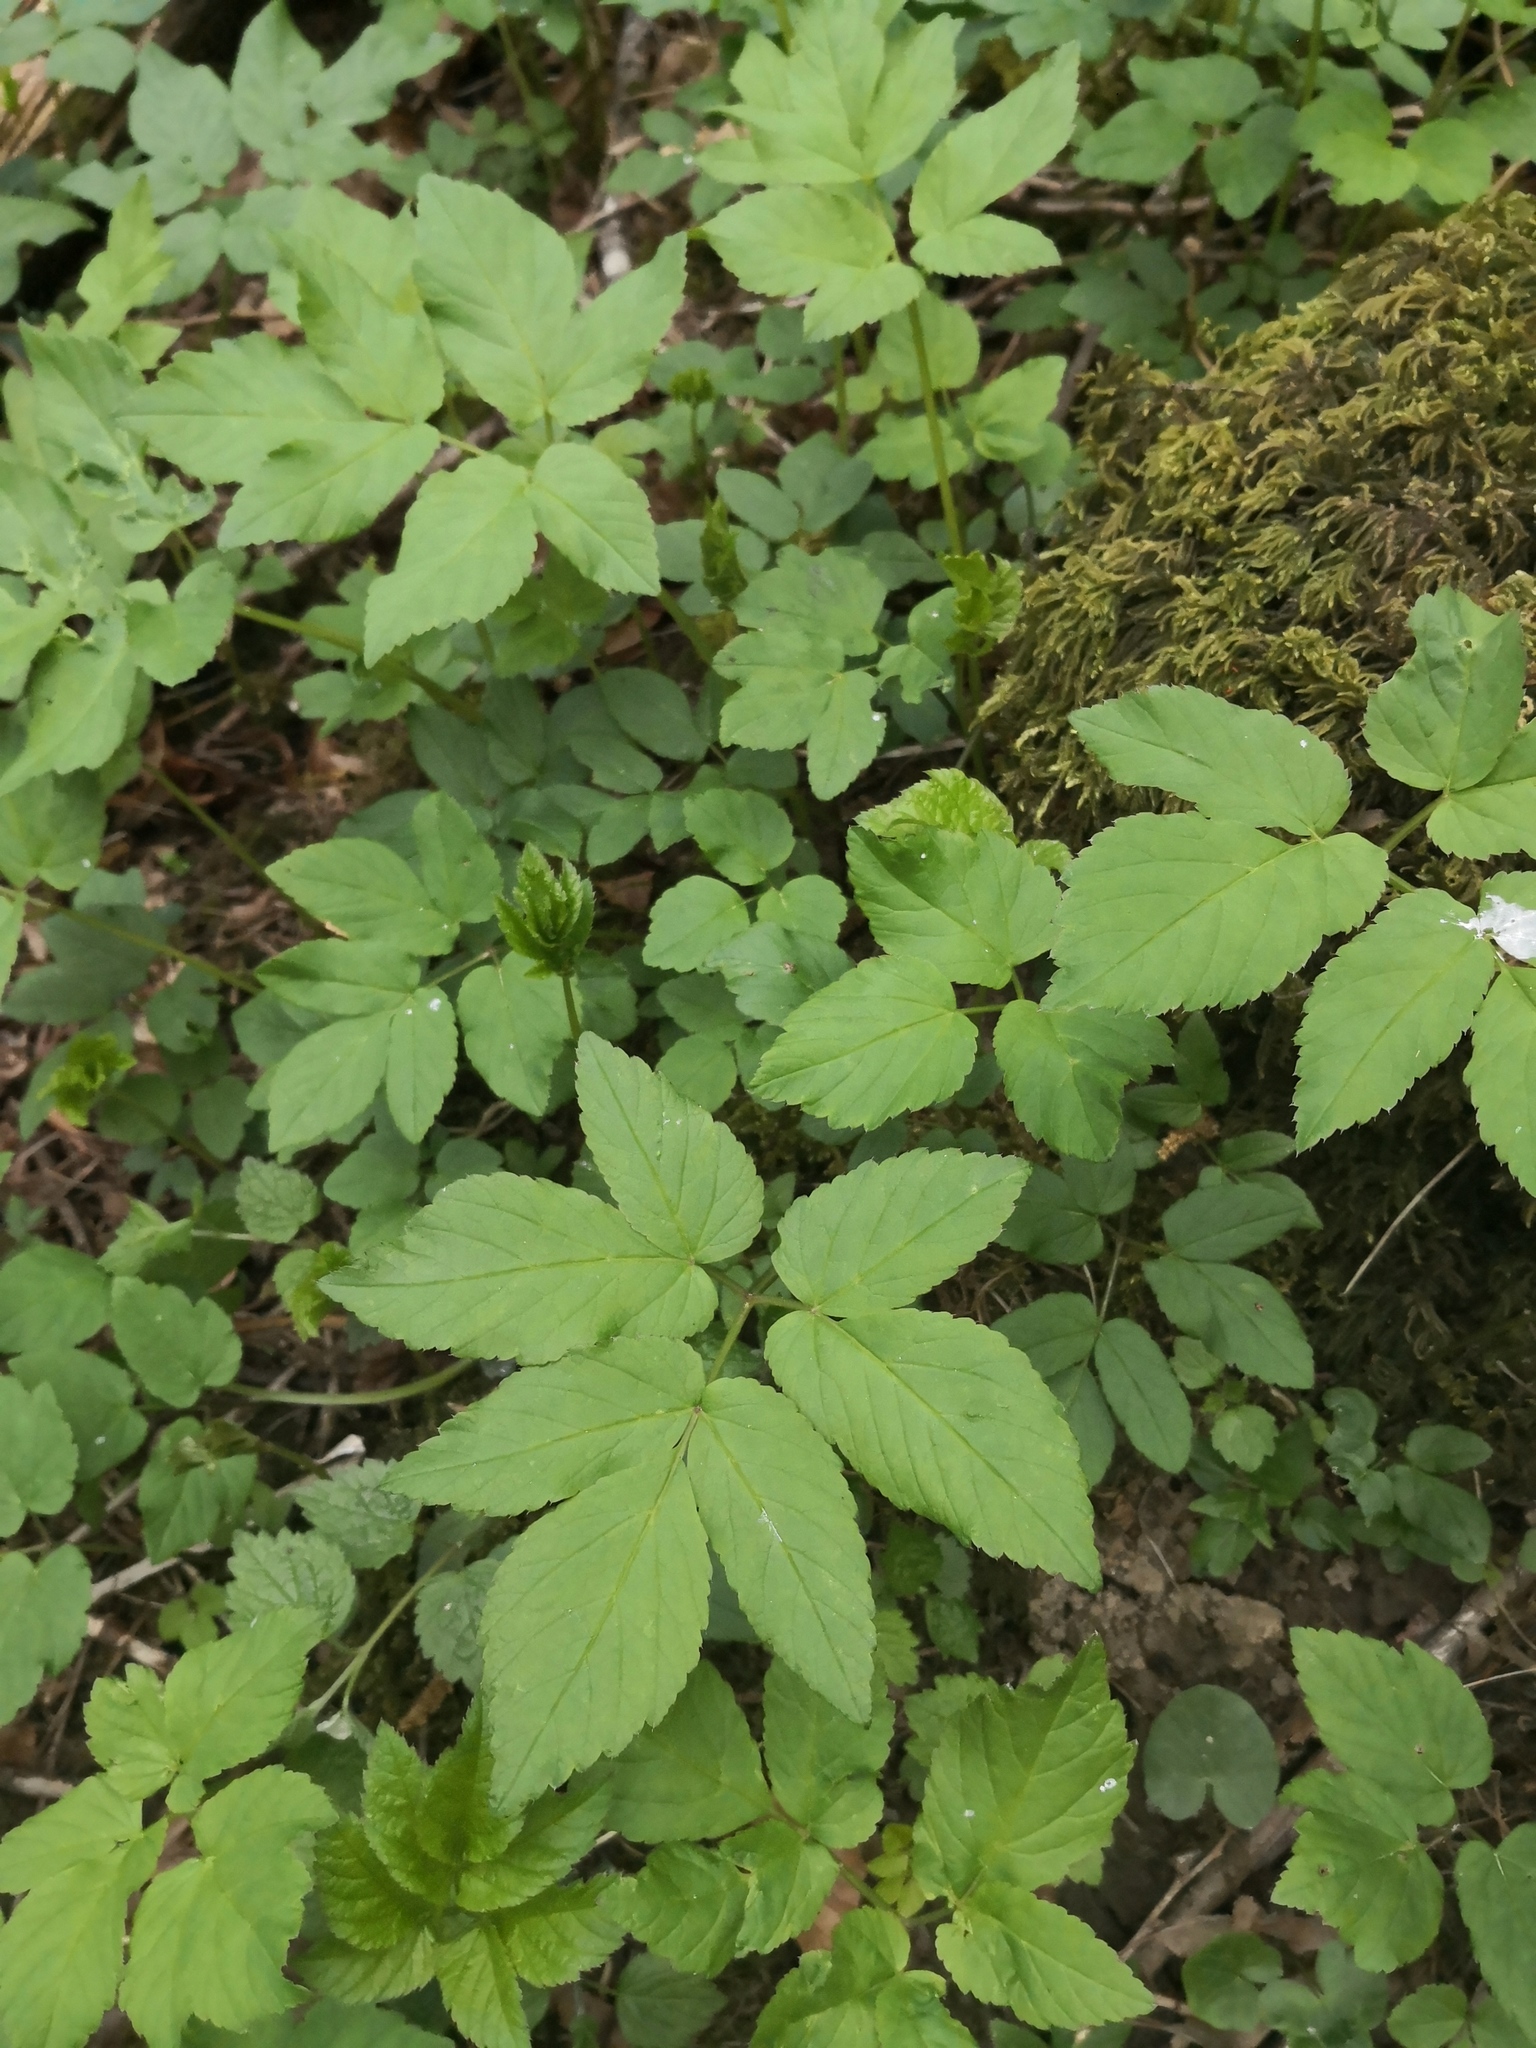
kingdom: Plantae
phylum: Tracheophyta
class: Magnoliopsida
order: Apiales
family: Apiaceae
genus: Aegopodium
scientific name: Aegopodium podagraria
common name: Ground-elder
